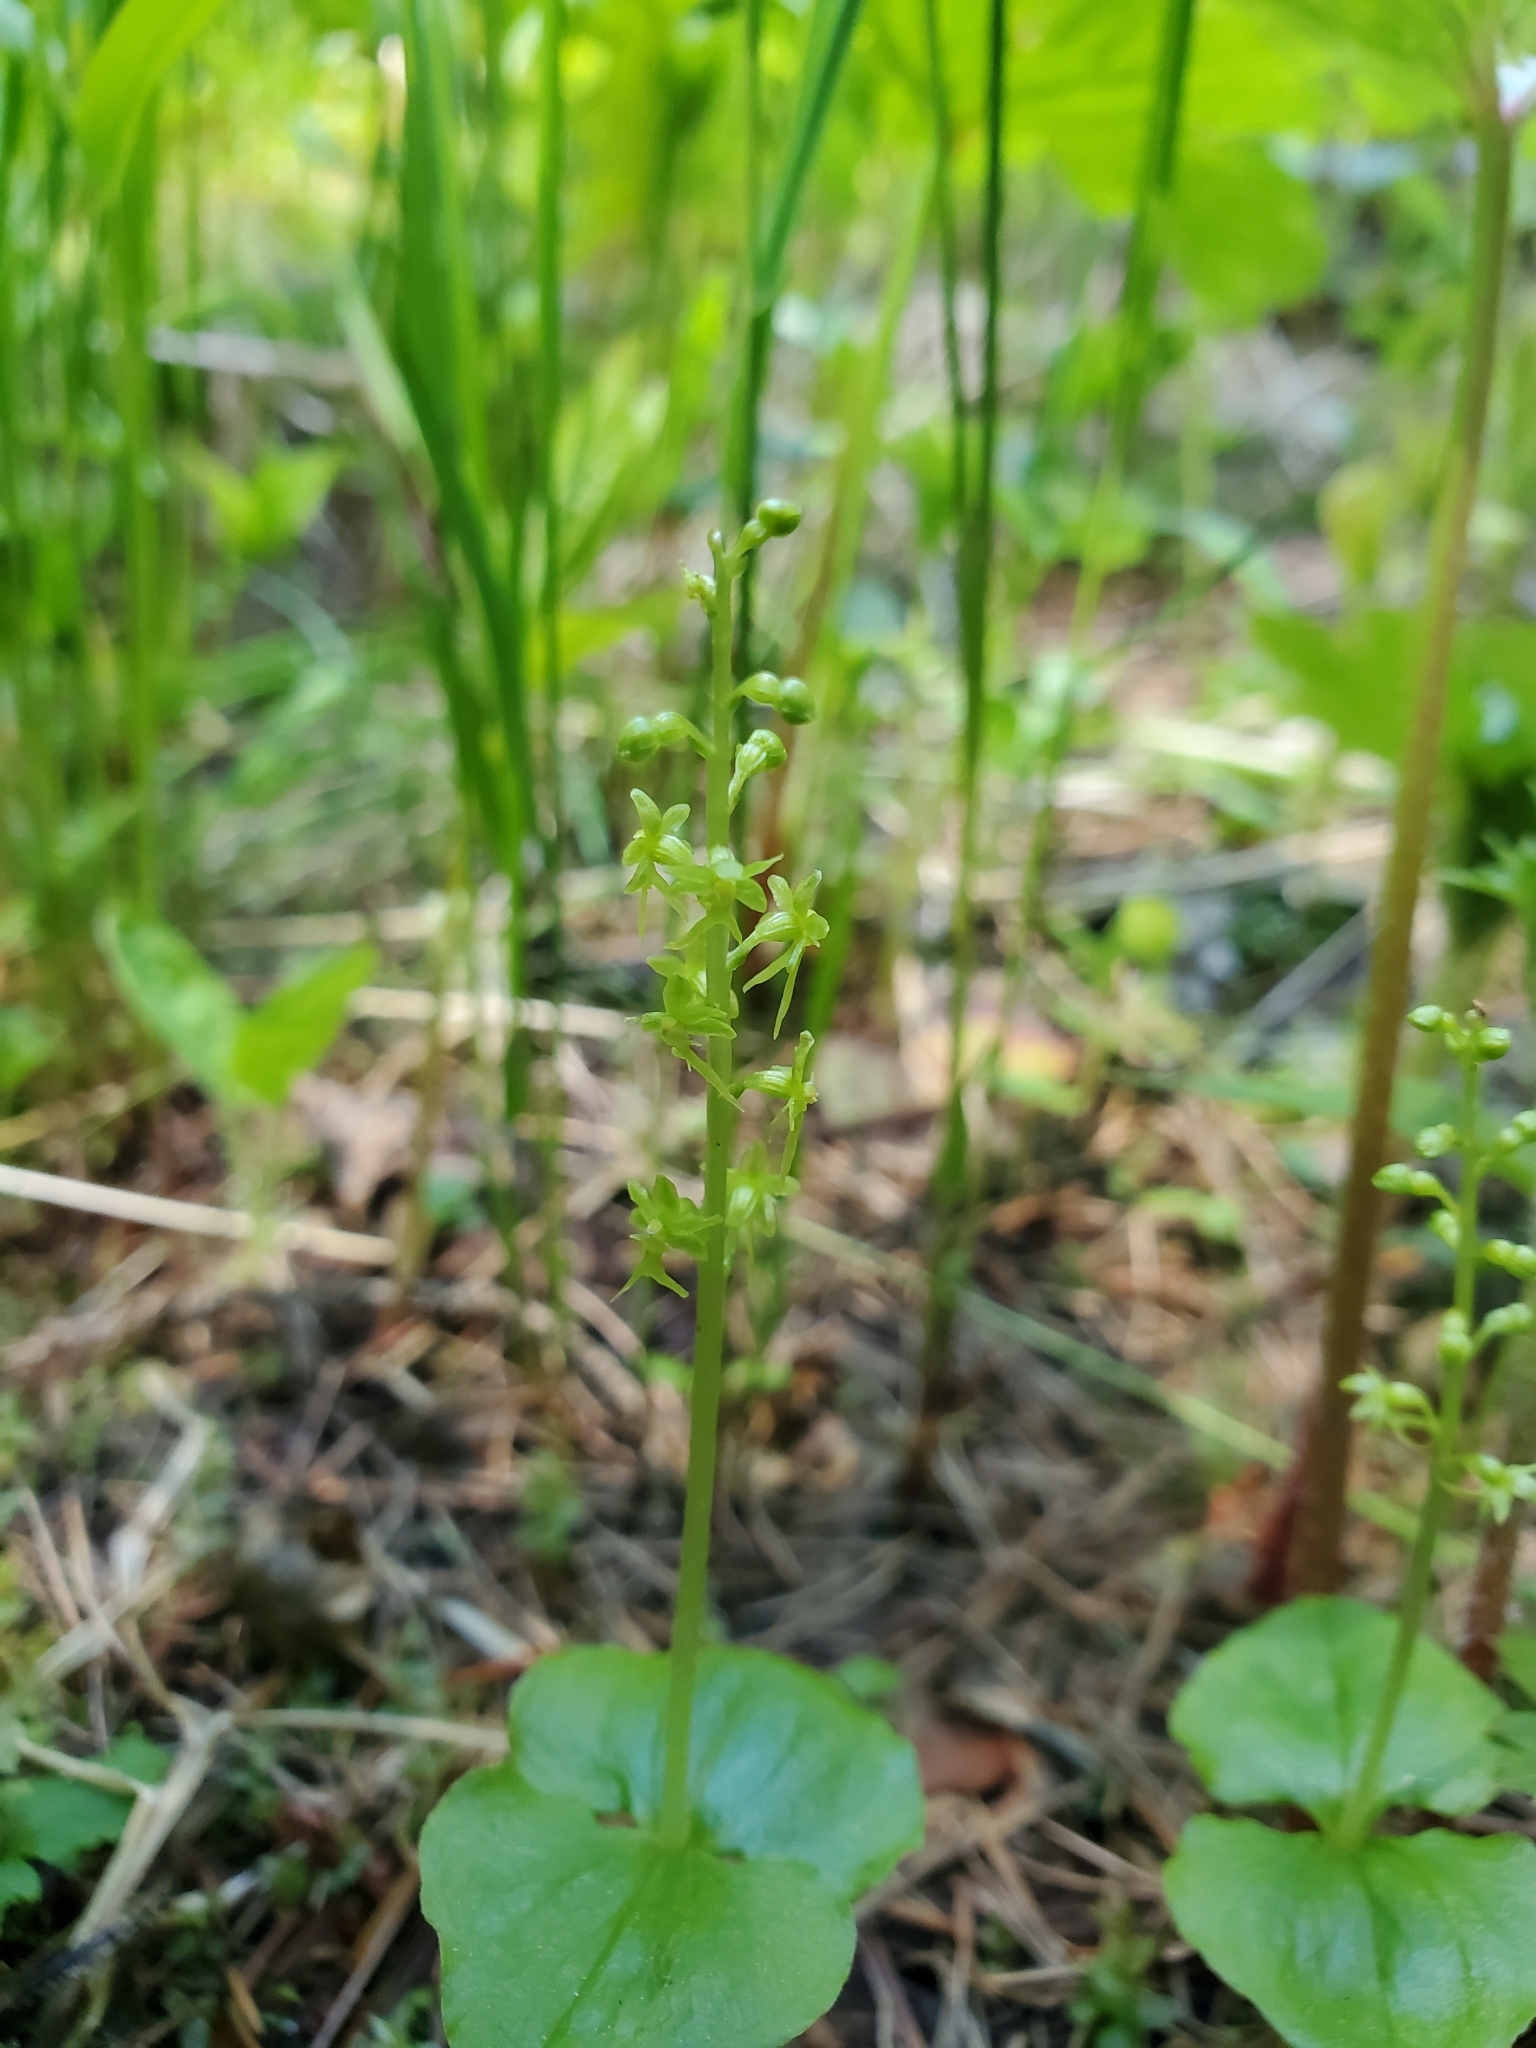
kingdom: Plantae
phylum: Tracheophyta
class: Liliopsida
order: Asparagales
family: Orchidaceae
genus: Neottia
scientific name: Neottia cordata
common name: Lesser twayblade
